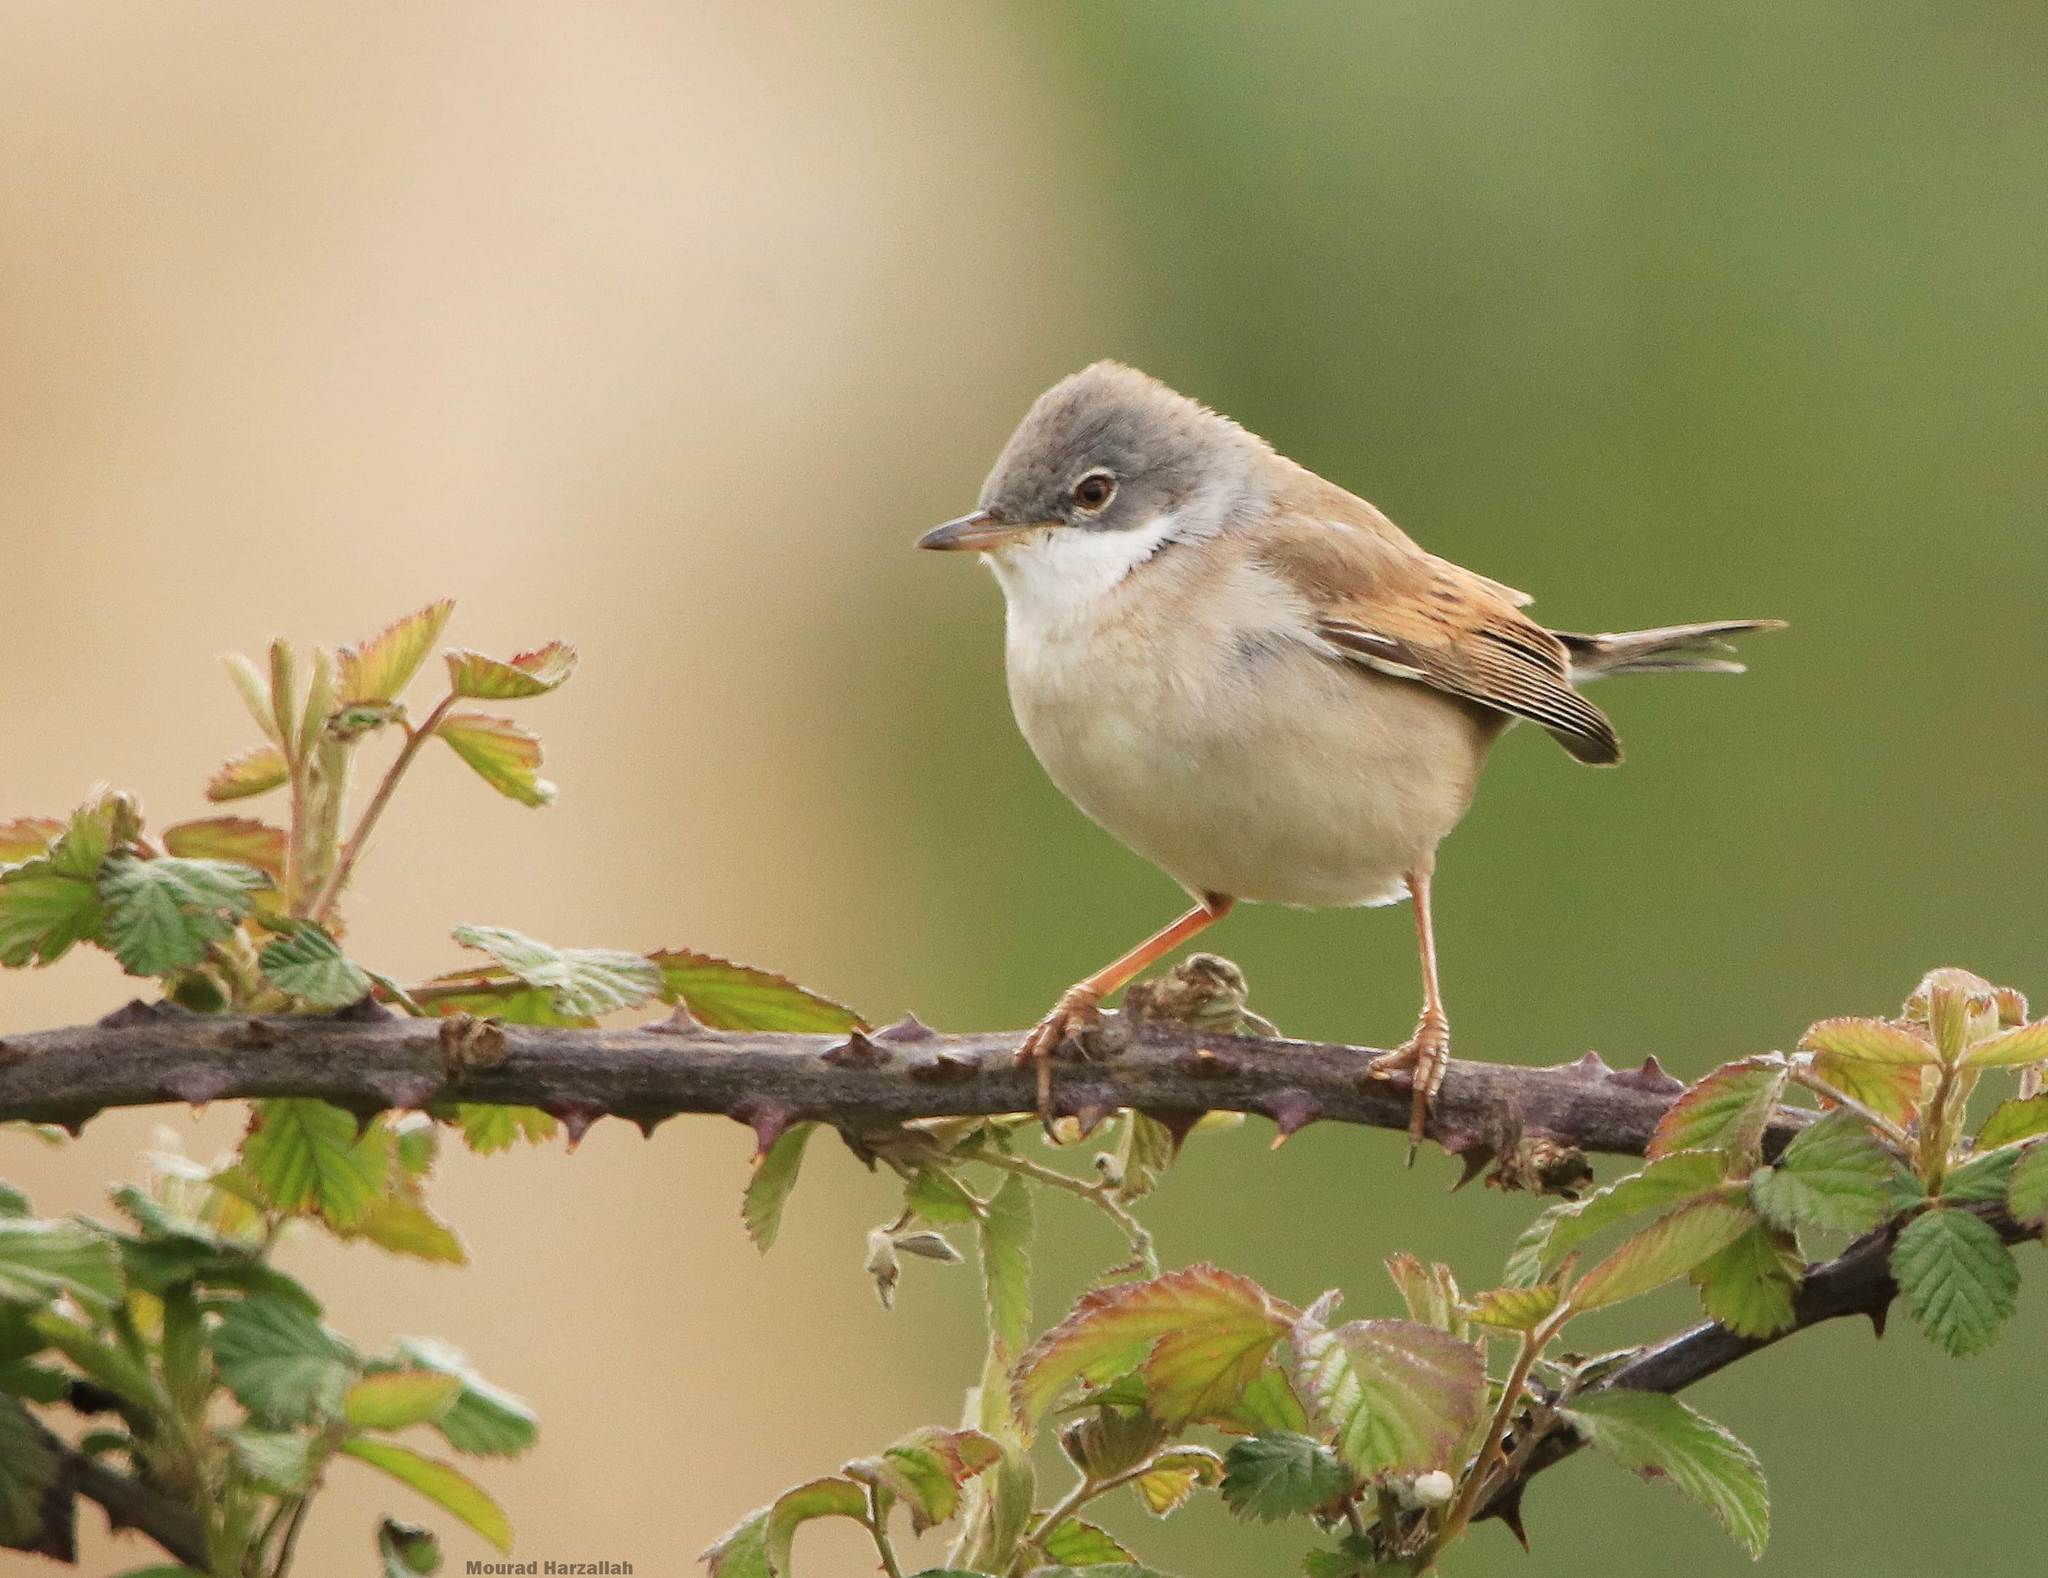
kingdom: Animalia
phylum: Chordata
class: Aves
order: Passeriformes
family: Sylviidae
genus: Sylvia
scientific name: Sylvia communis
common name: Common whitethroat
